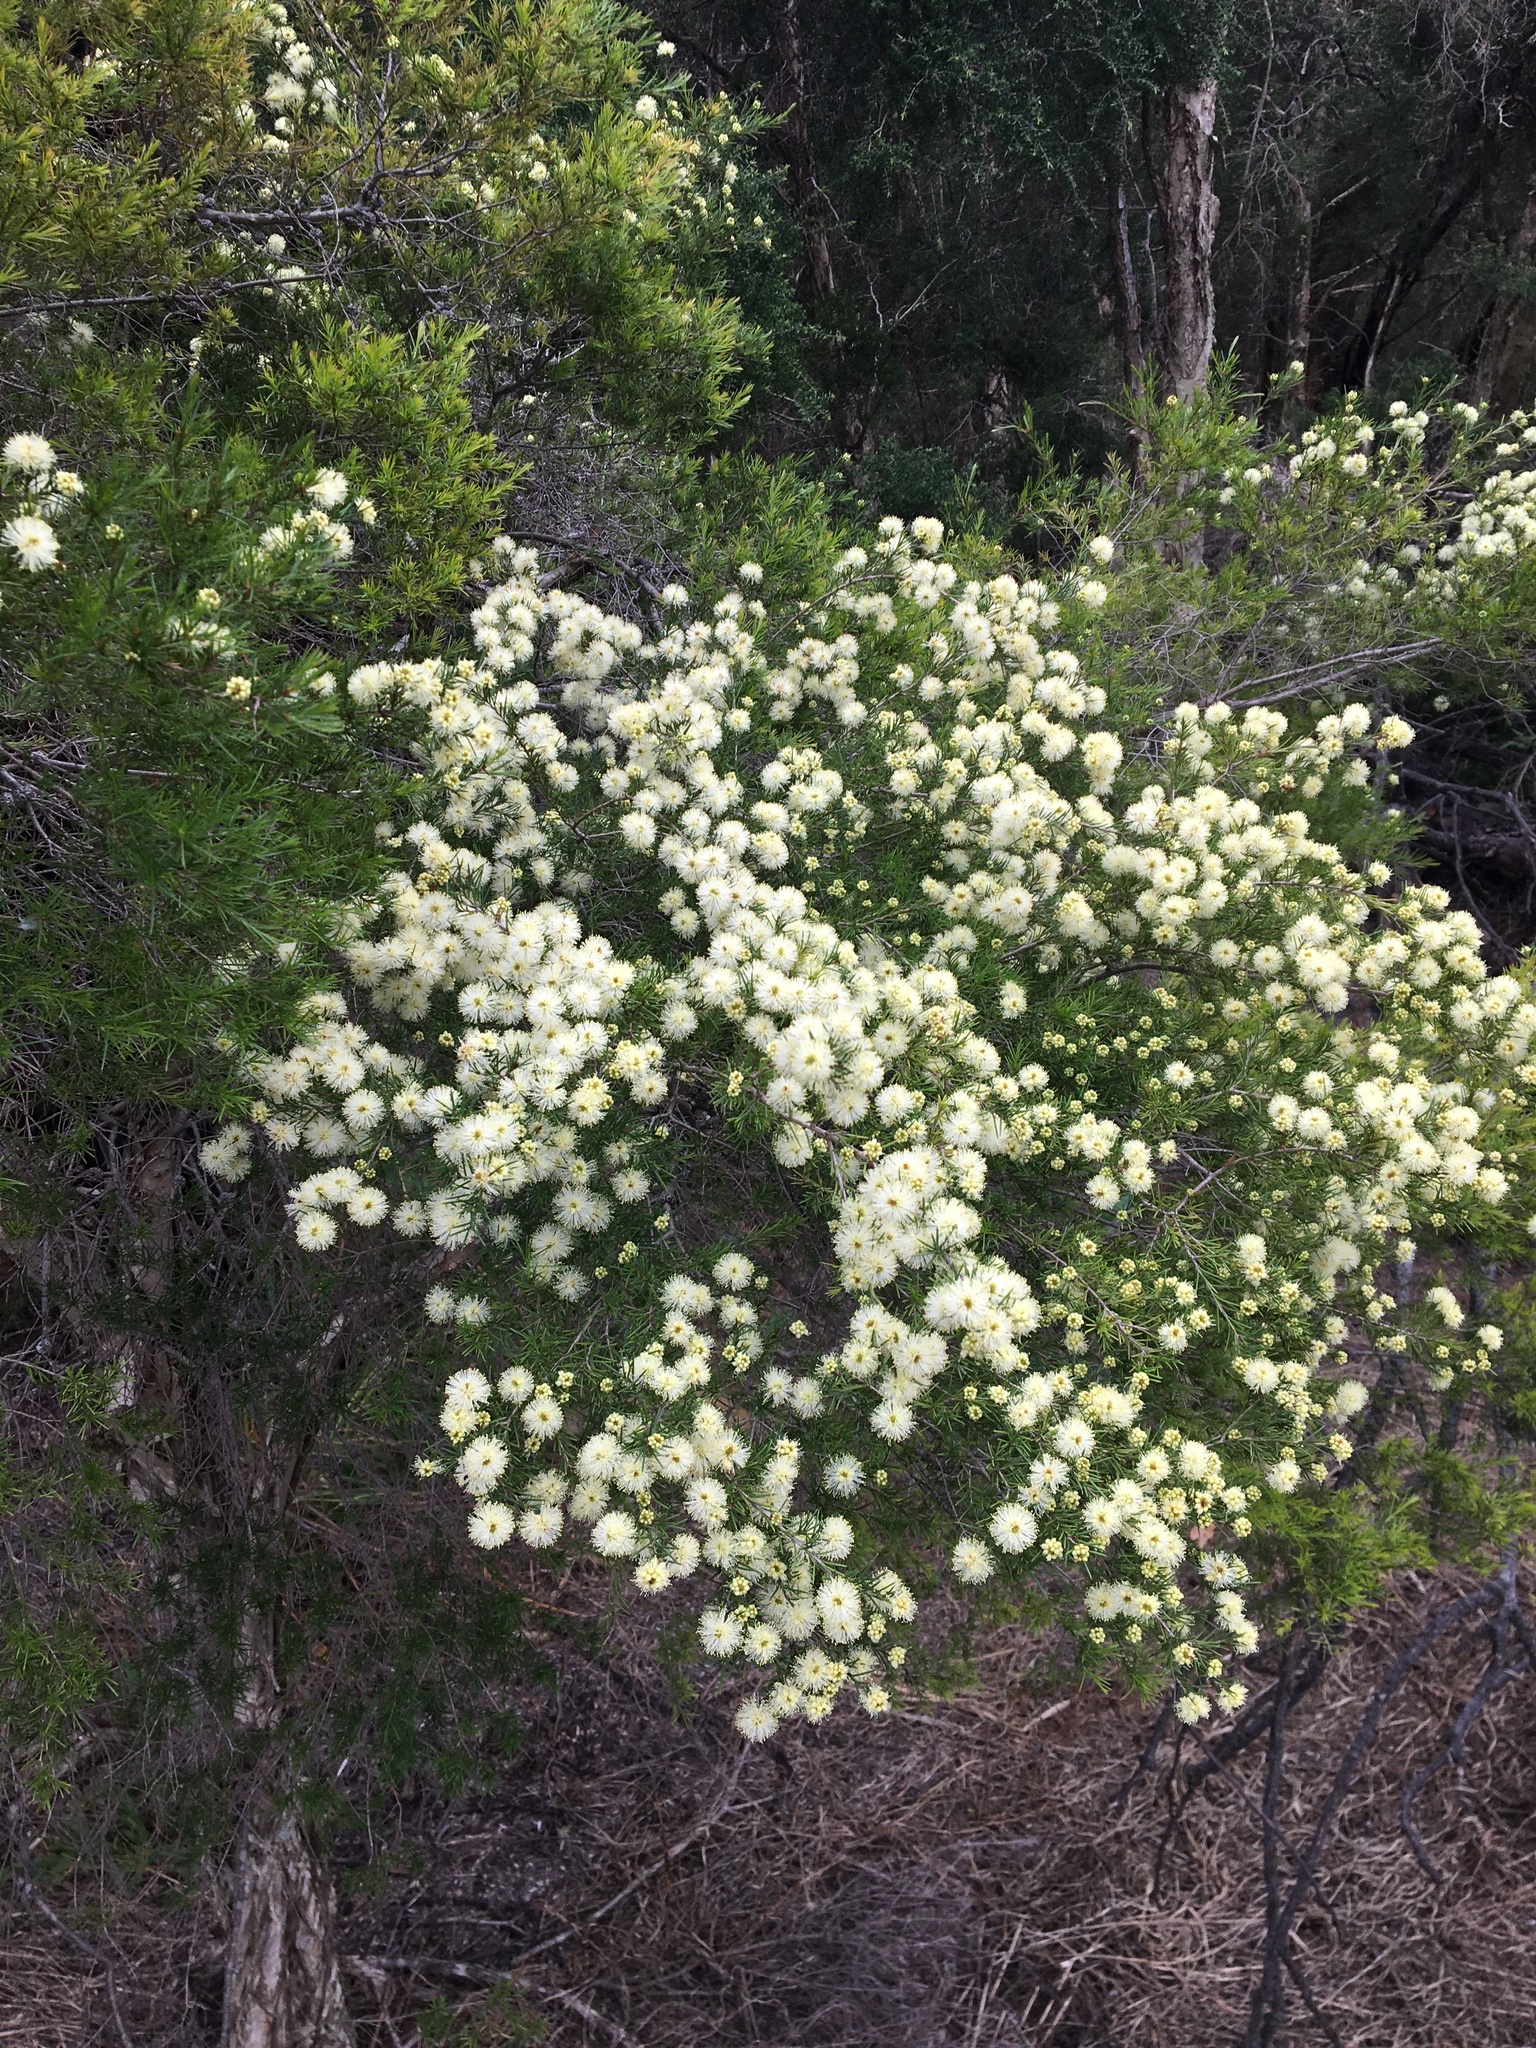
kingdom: Plantae
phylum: Tracheophyta
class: Magnoliopsida
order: Myrtales
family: Myrtaceae
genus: Melaleuca
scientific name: Melaleuca nodosa
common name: Prickly-leaf paperbark
